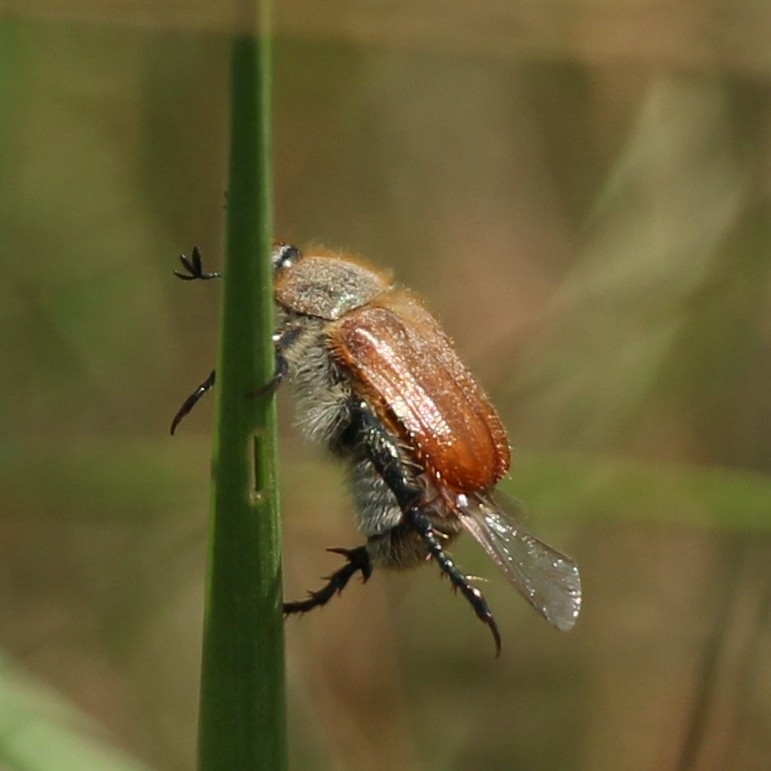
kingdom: Animalia
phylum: Arthropoda
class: Insecta
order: Coleoptera
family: Scarabaeidae
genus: Chaetopteroplia
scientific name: Chaetopteroplia segetum
